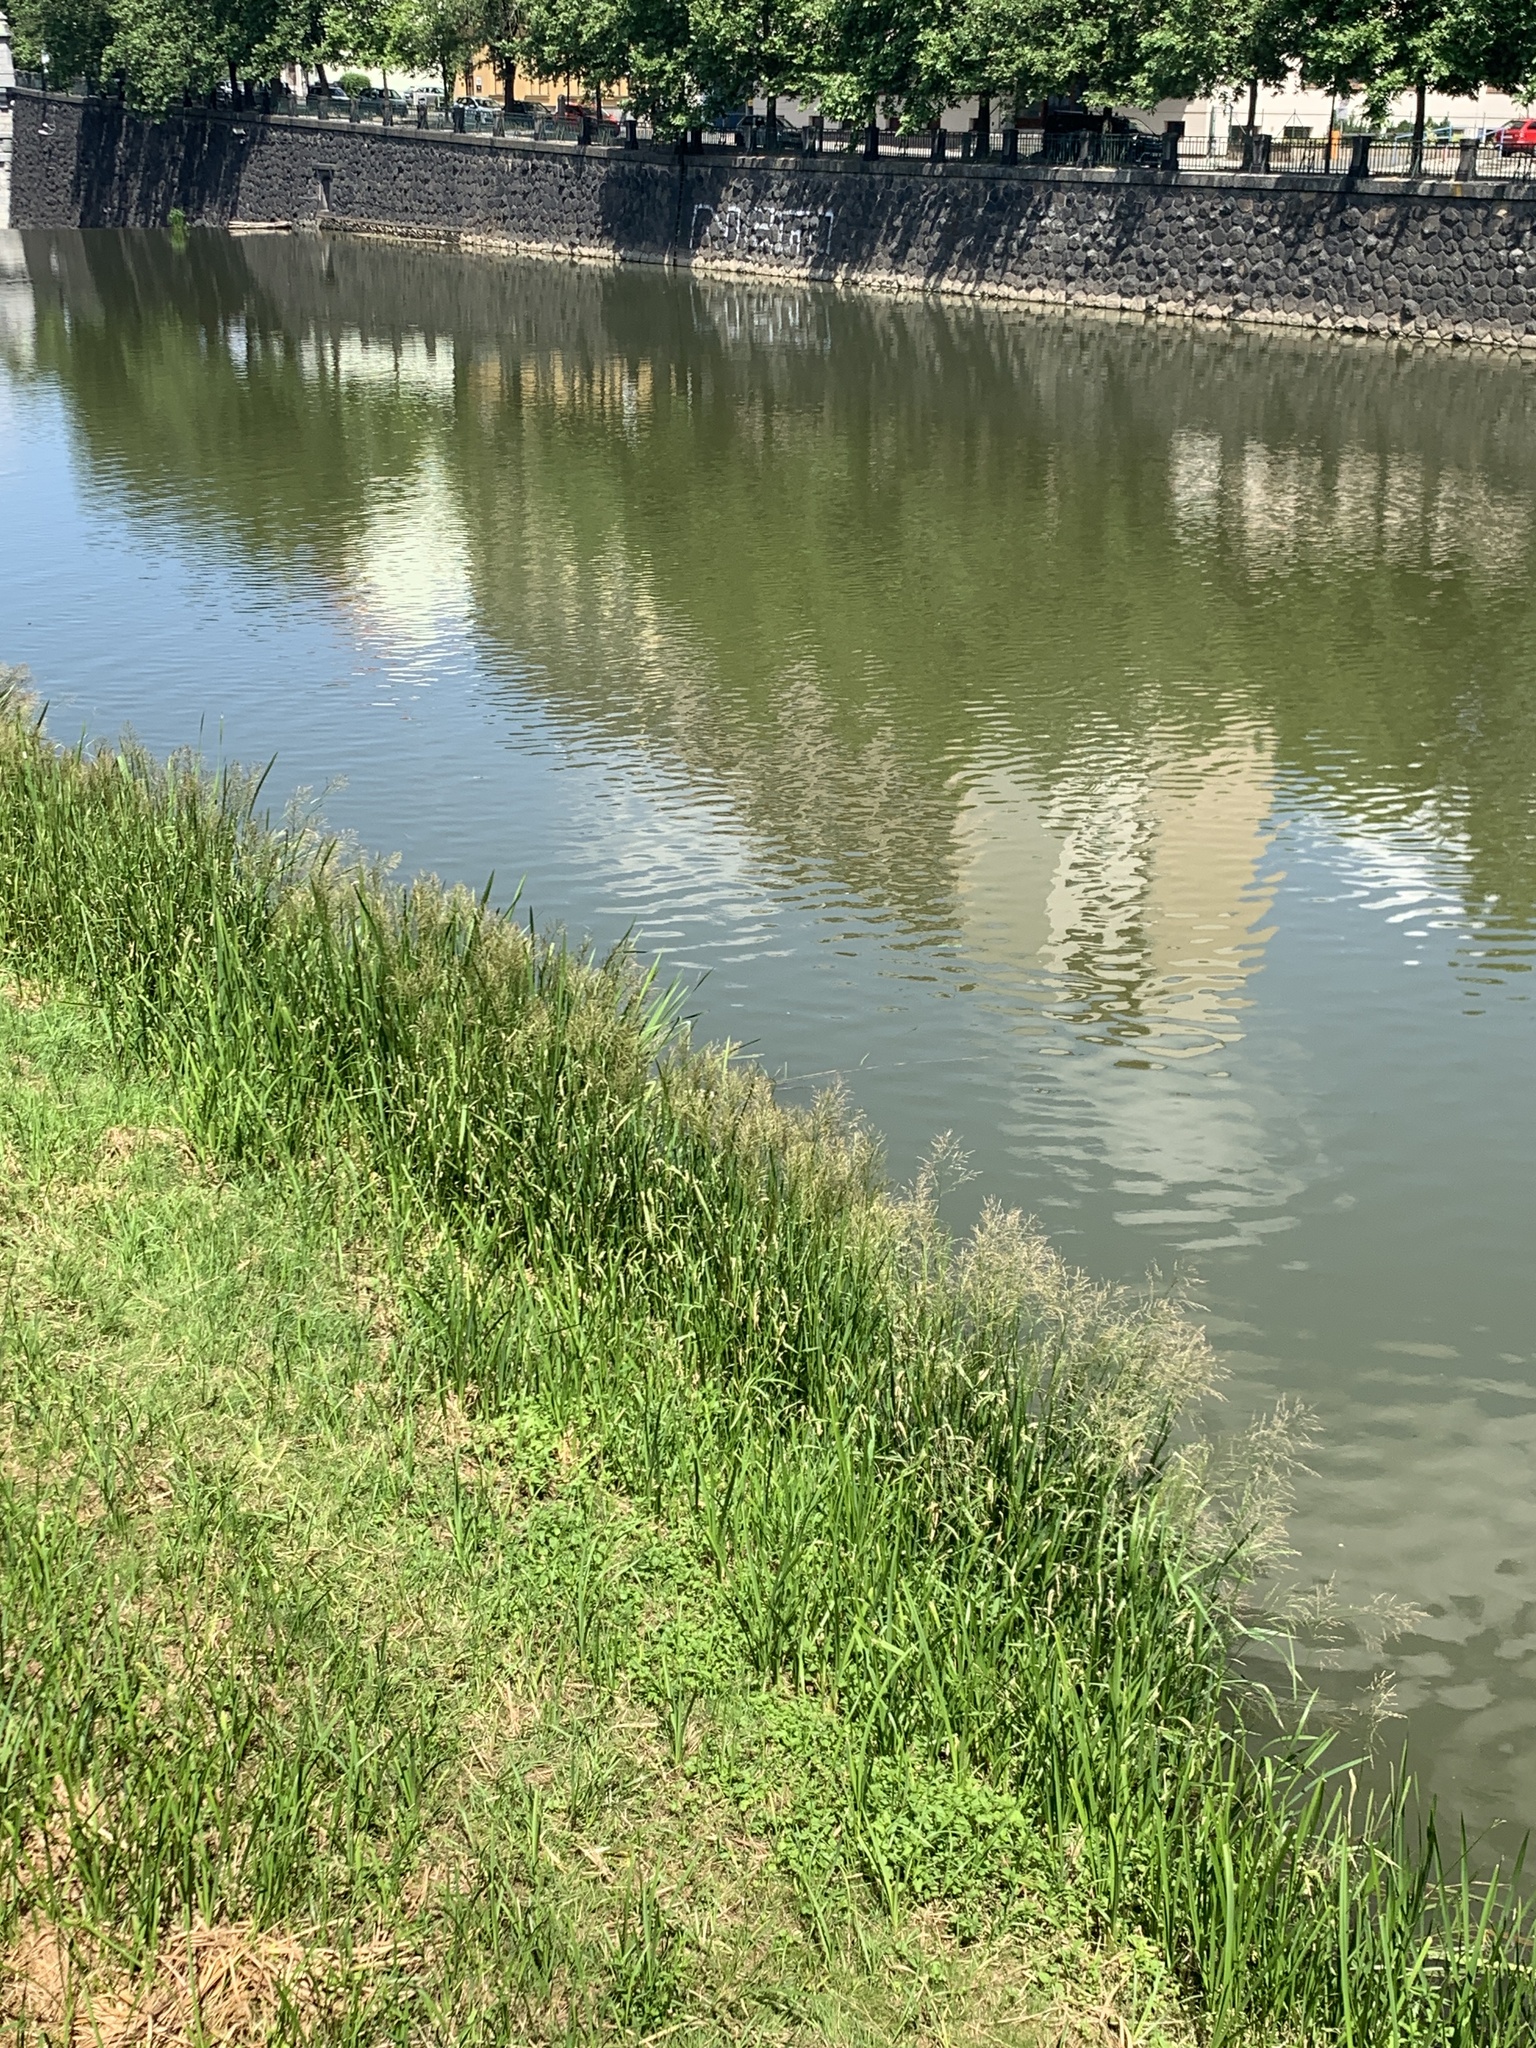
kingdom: Plantae
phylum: Tracheophyta
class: Liliopsida
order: Poales
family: Poaceae
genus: Glyceria
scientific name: Glyceria maxima
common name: Reed mannagrass
